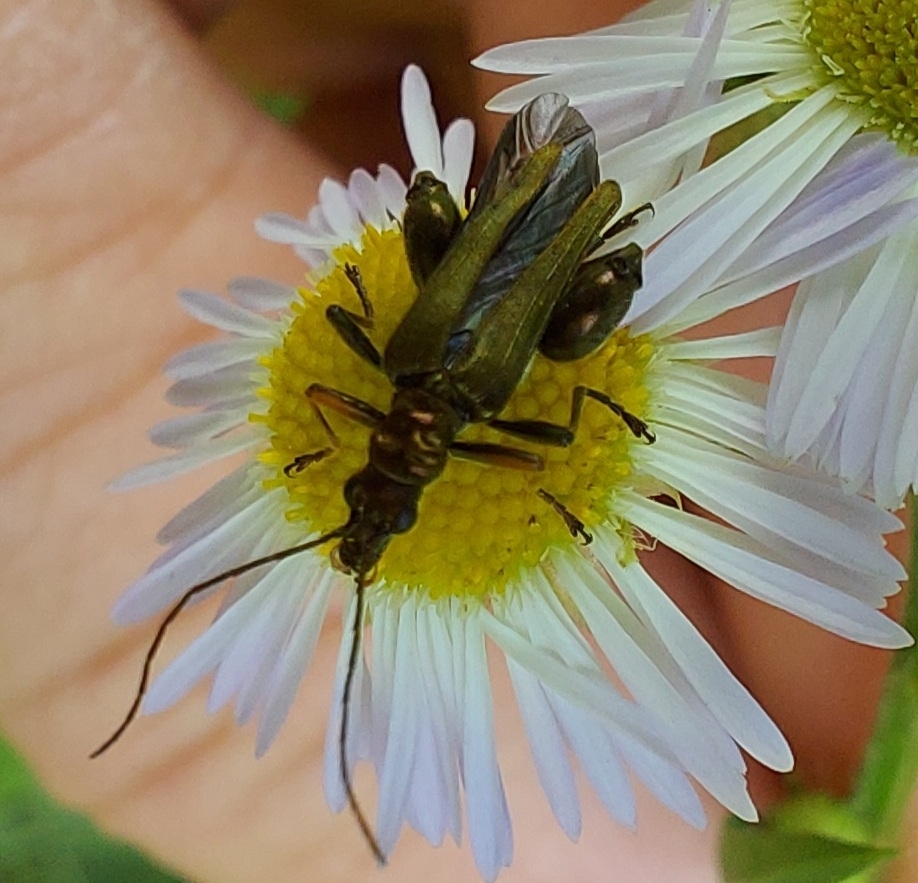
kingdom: Animalia
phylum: Arthropoda
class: Insecta
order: Coleoptera
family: Oedemeridae
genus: Oedemera
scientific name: Oedemera flavipes
